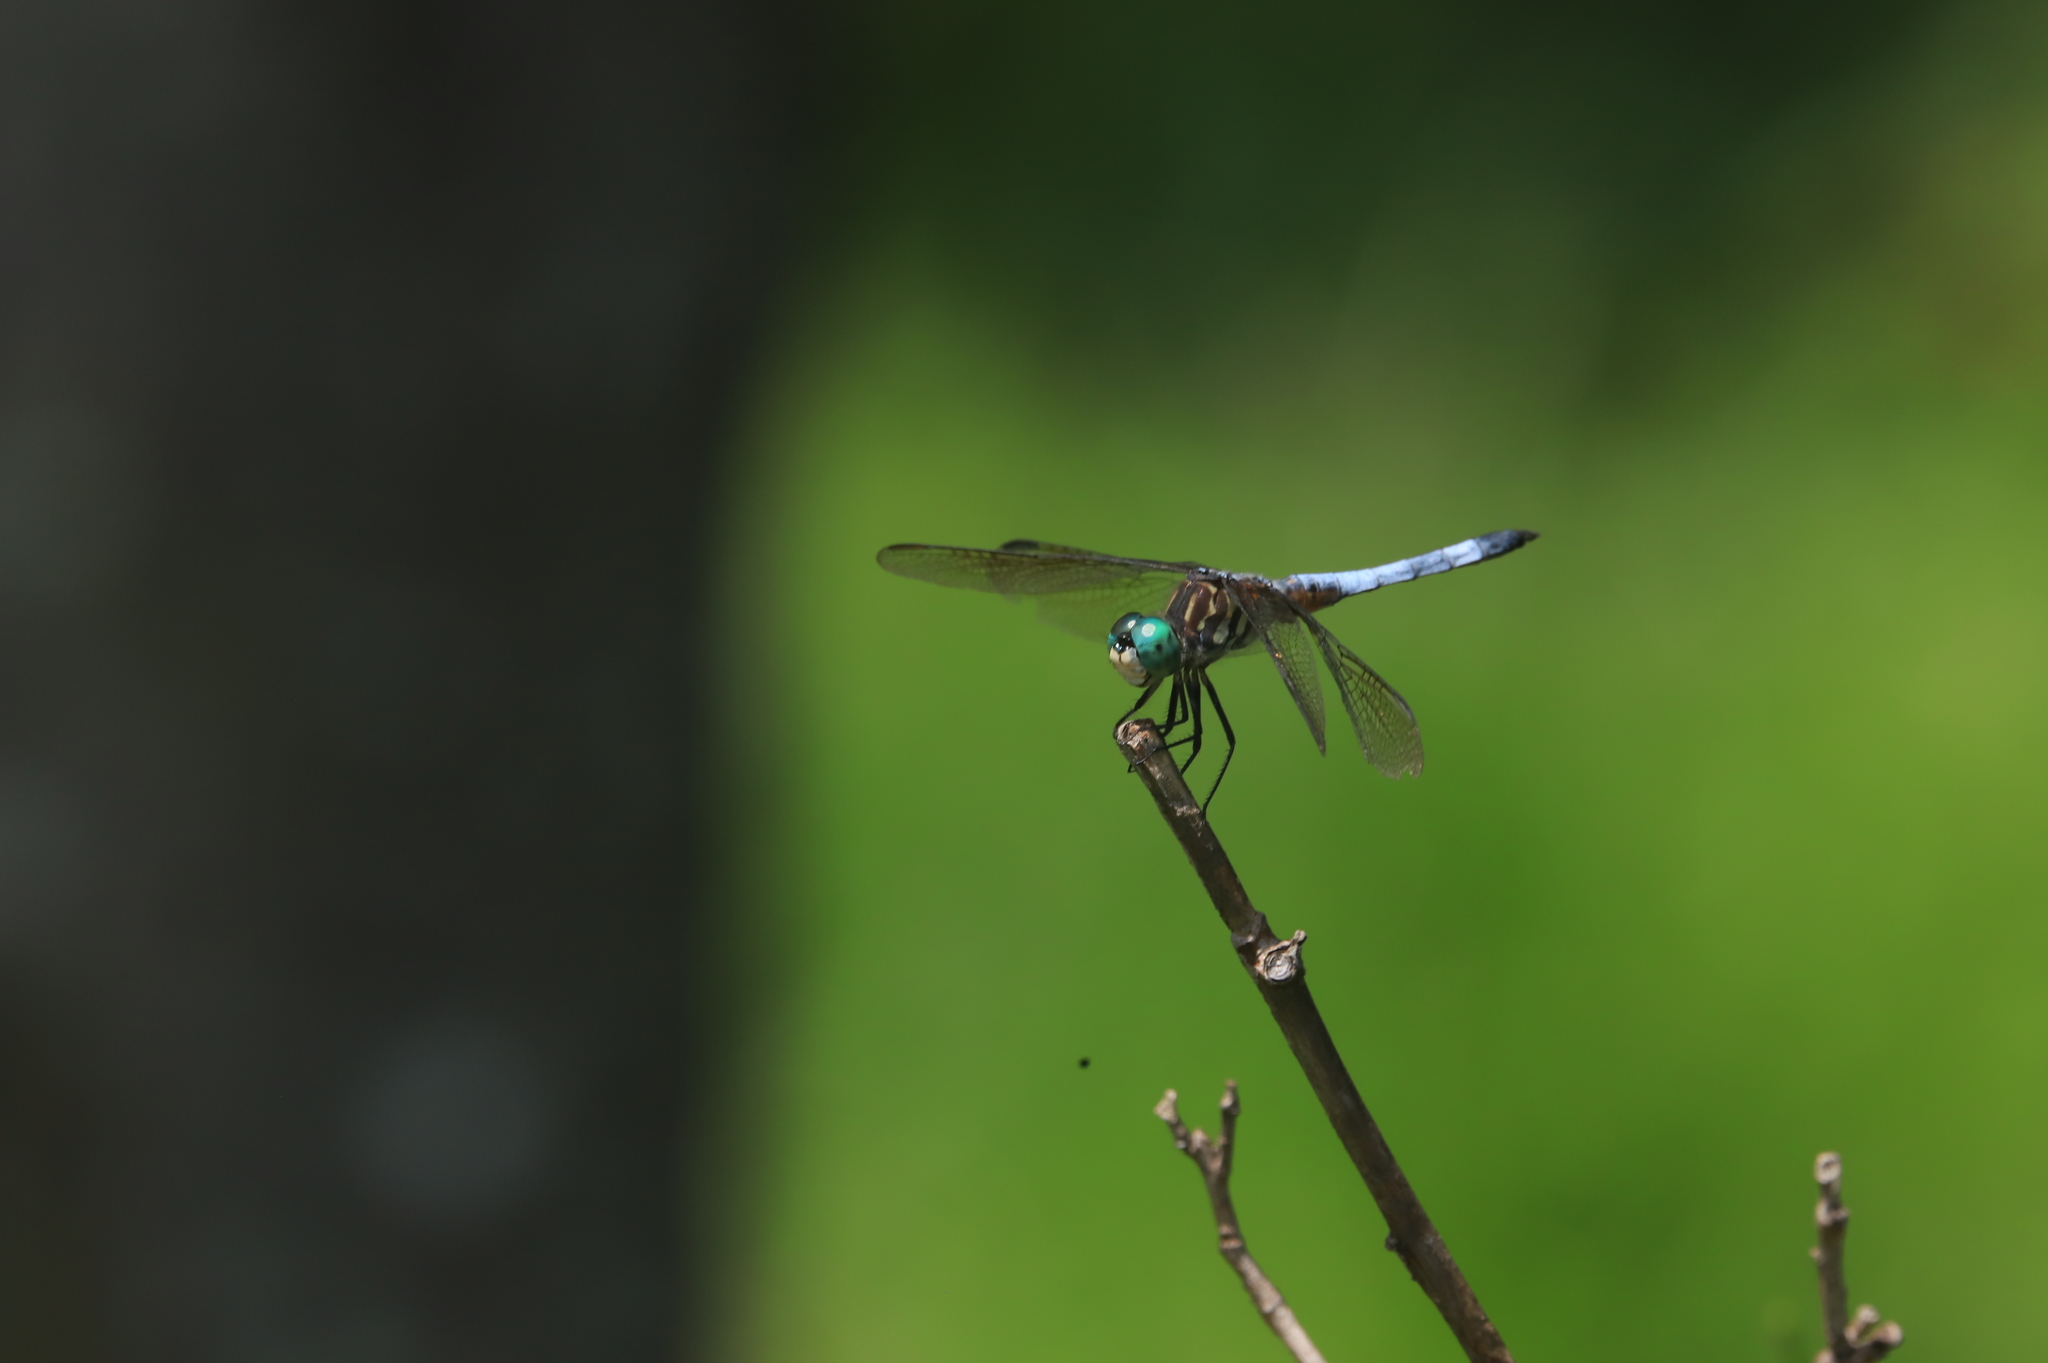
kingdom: Animalia
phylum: Arthropoda
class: Insecta
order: Odonata
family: Libellulidae
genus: Pachydiplax
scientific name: Pachydiplax longipennis
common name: Blue dasher
